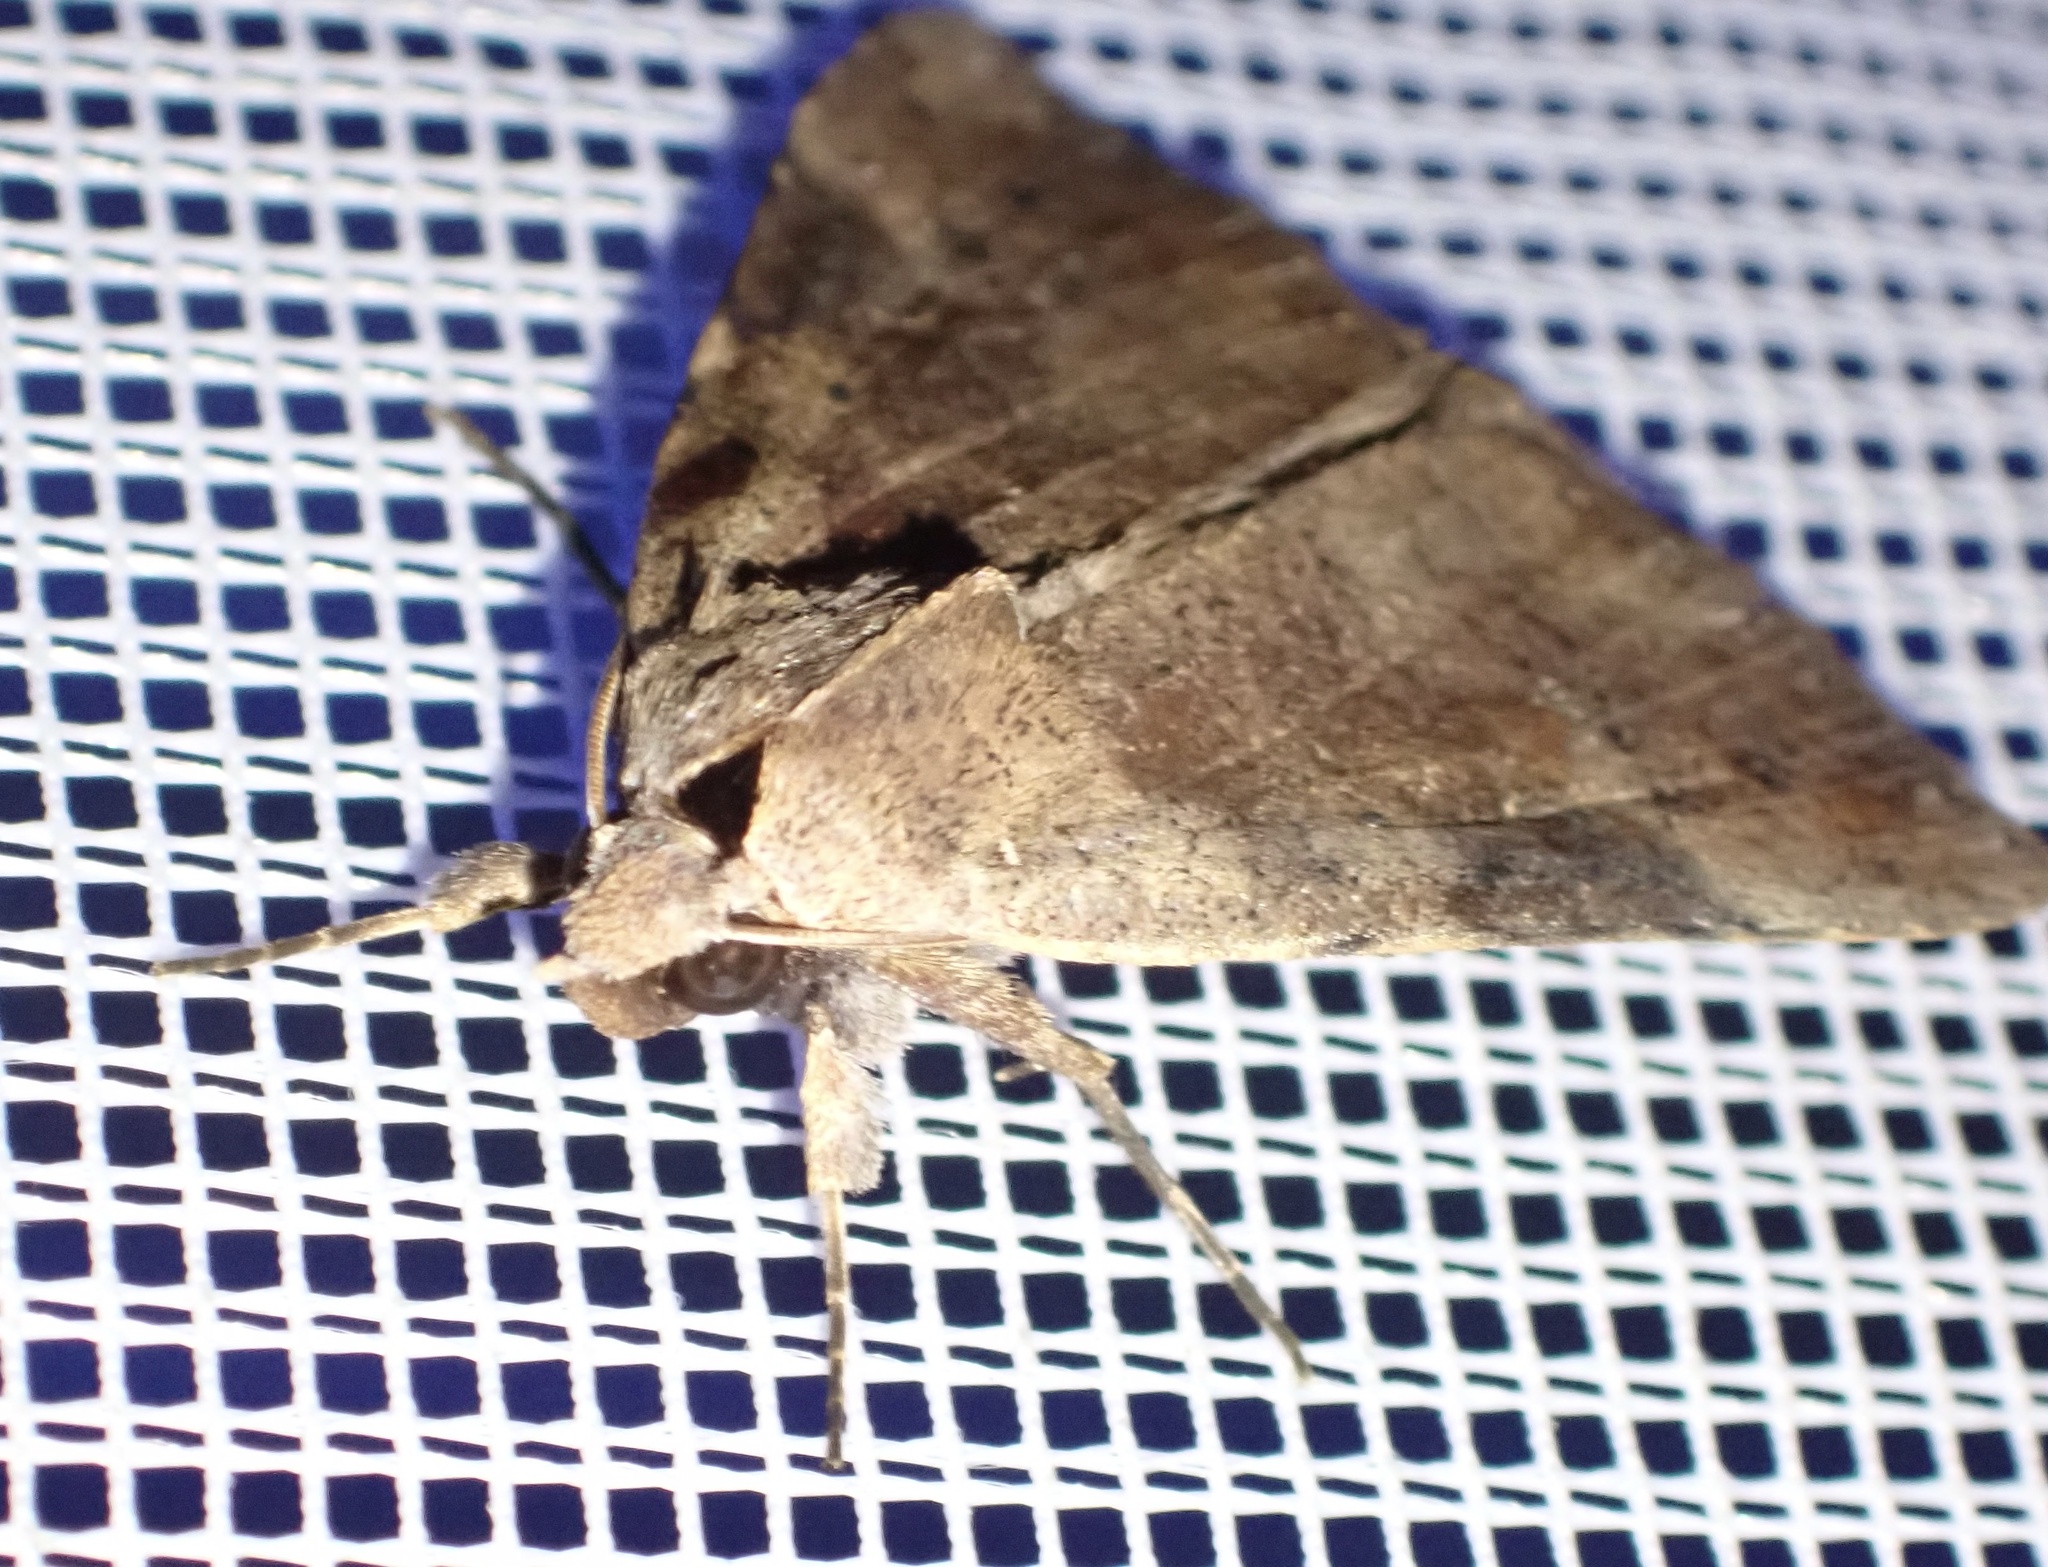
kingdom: Animalia
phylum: Arthropoda
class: Insecta
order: Lepidoptera
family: Erebidae
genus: Avatha
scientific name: Avatha discolor
